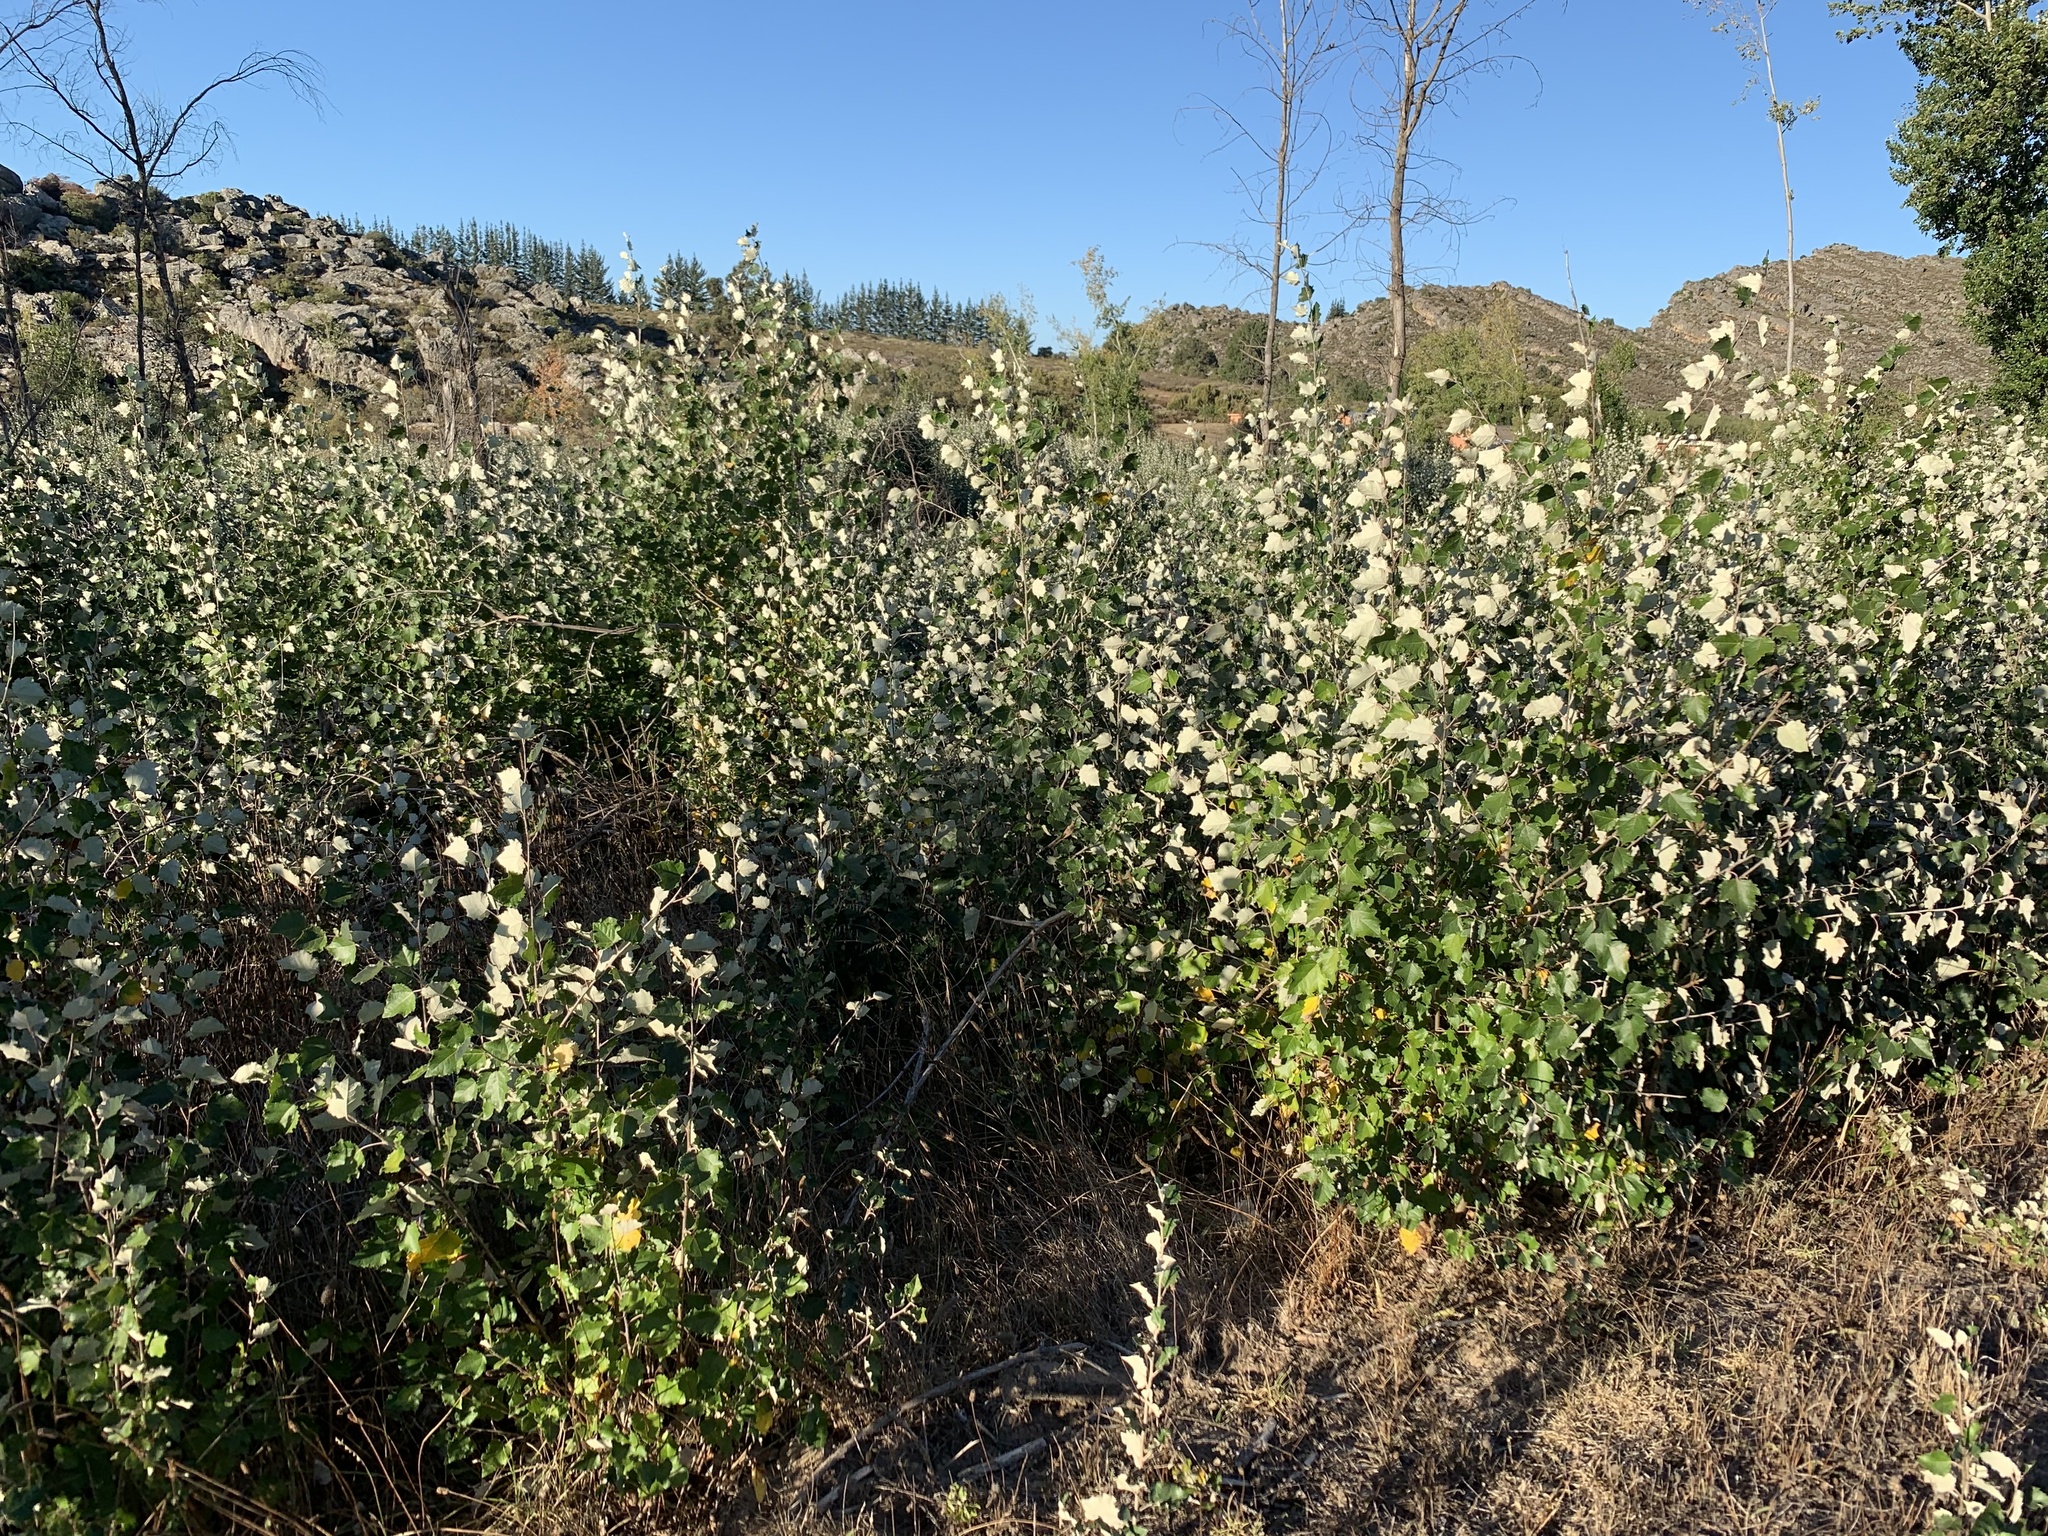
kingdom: Plantae
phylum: Tracheophyta
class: Magnoliopsida
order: Malpighiales
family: Salicaceae
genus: Populus
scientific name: Populus canescens
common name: Gray poplar
